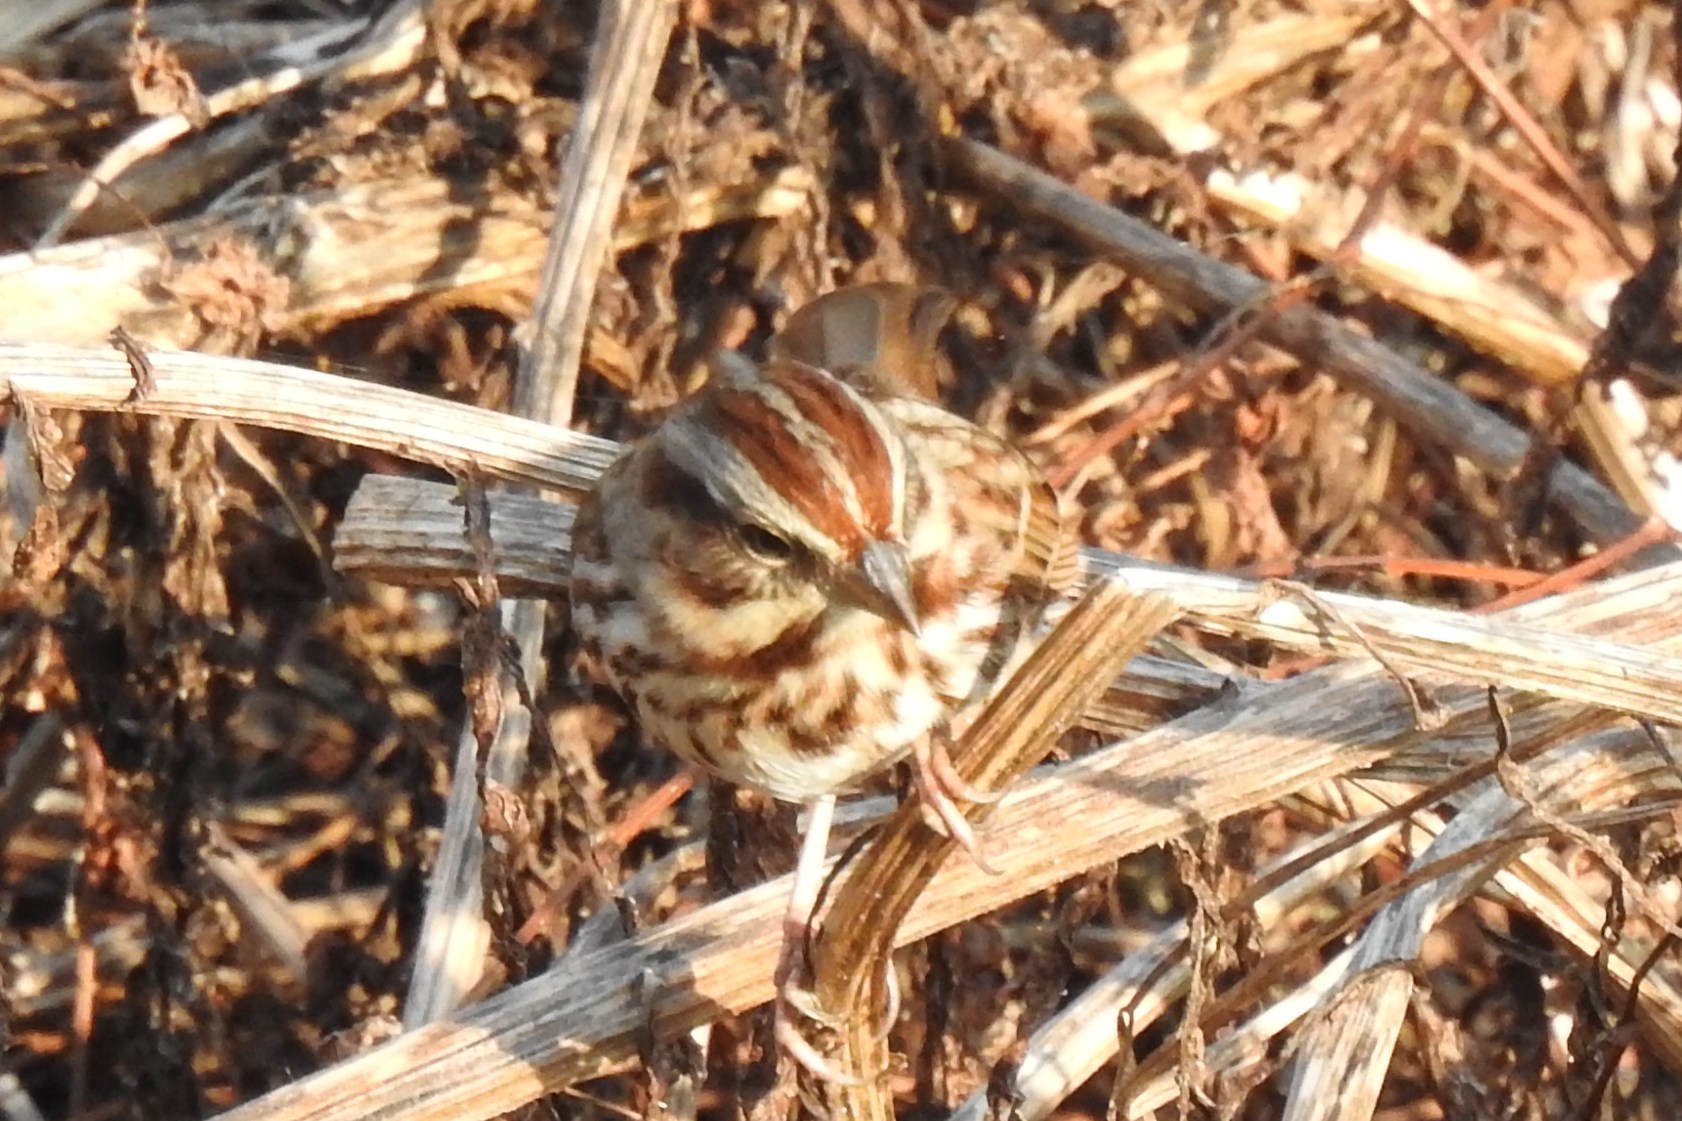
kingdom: Animalia
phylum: Chordata
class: Aves
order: Passeriformes
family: Passerellidae
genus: Melospiza
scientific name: Melospiza melodia
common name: Song sparrow
